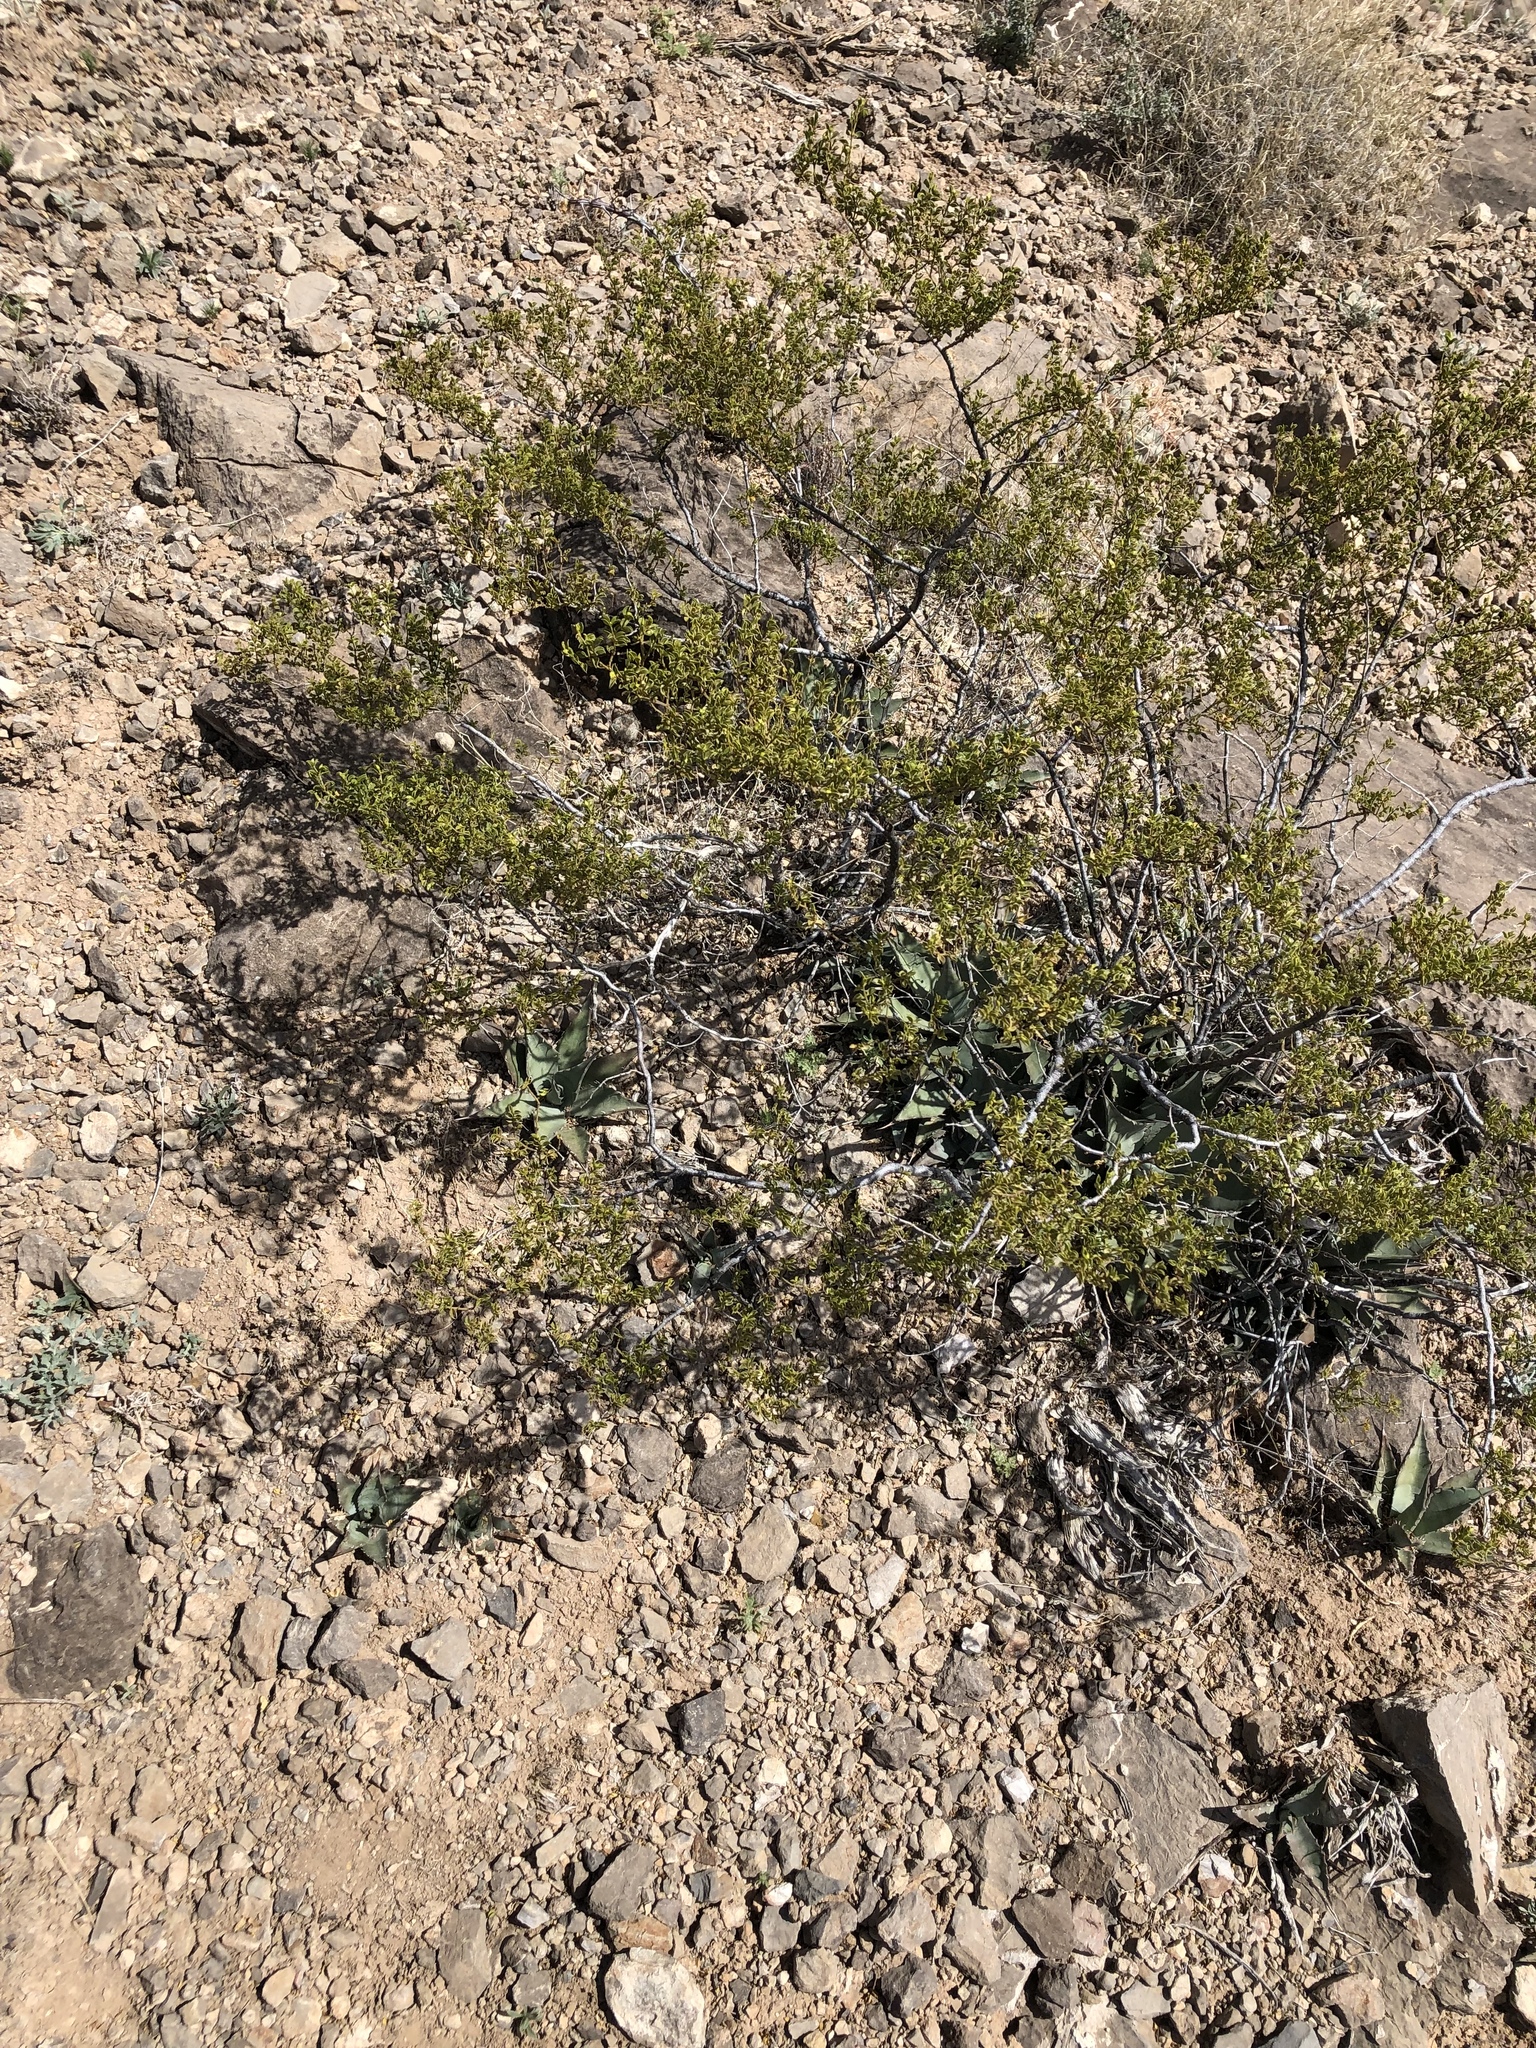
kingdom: Plantae
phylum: Tracheophyta
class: Magnoliopsida
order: Zygophyllales
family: Zygophyllaceae
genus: Larrea
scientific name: Larrea tridentata
